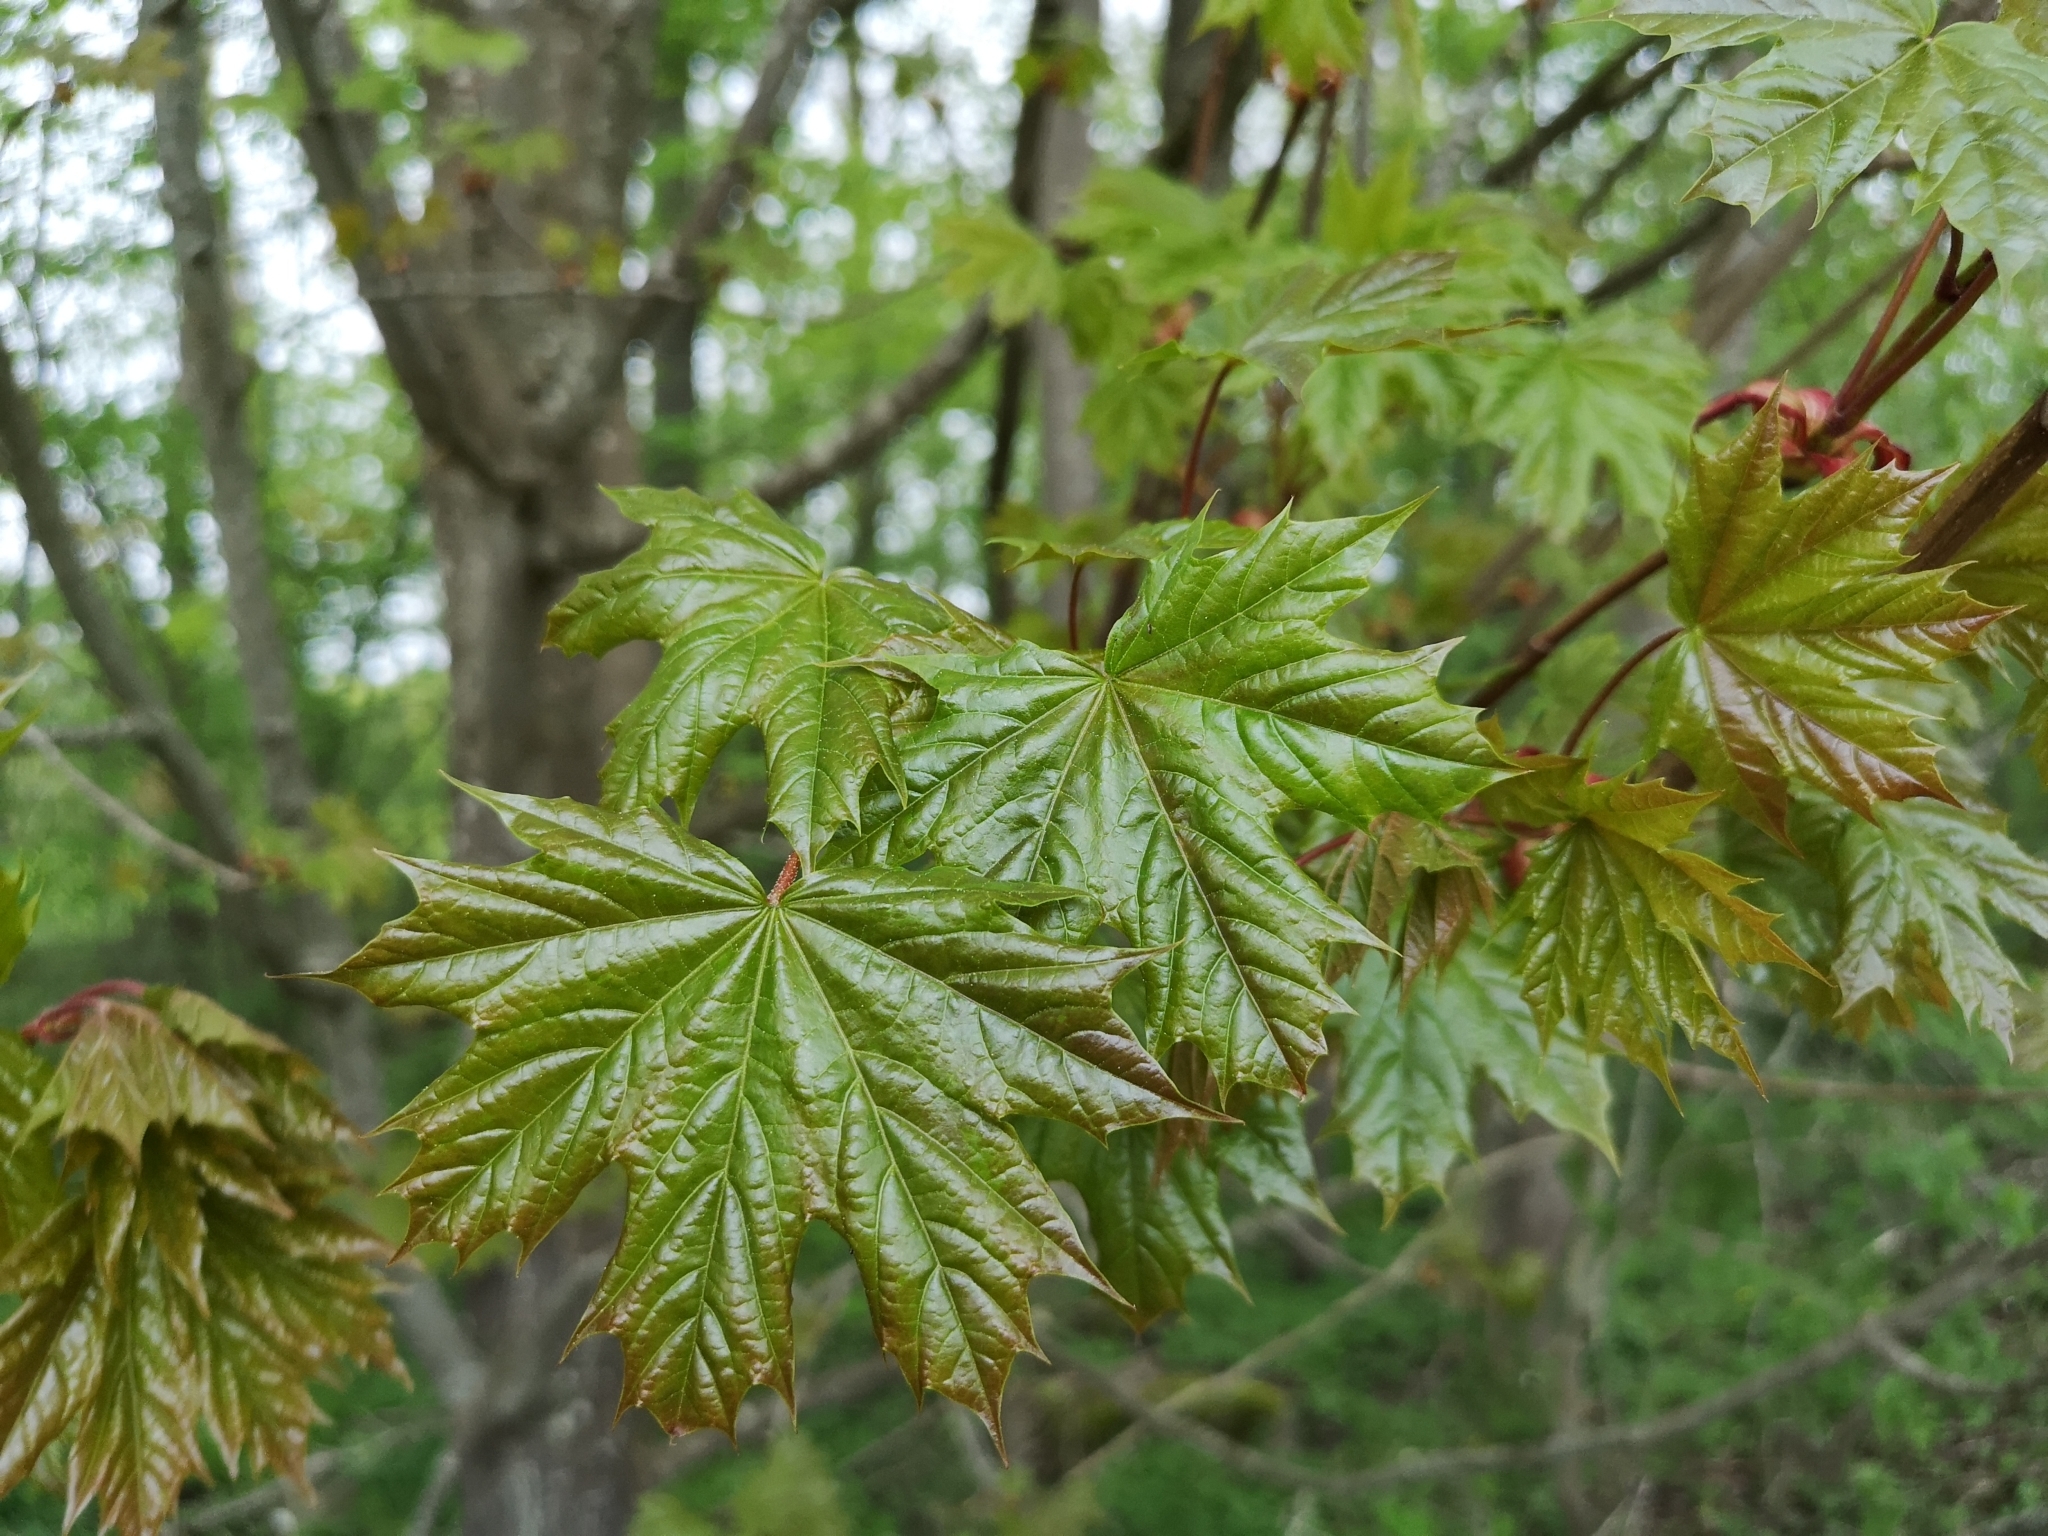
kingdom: Plantae
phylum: Tracheophyta
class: Magnoliopsida
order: Sapindales
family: Sapindaceae
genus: Acer
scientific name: Acer platanoides
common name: Norway maple
